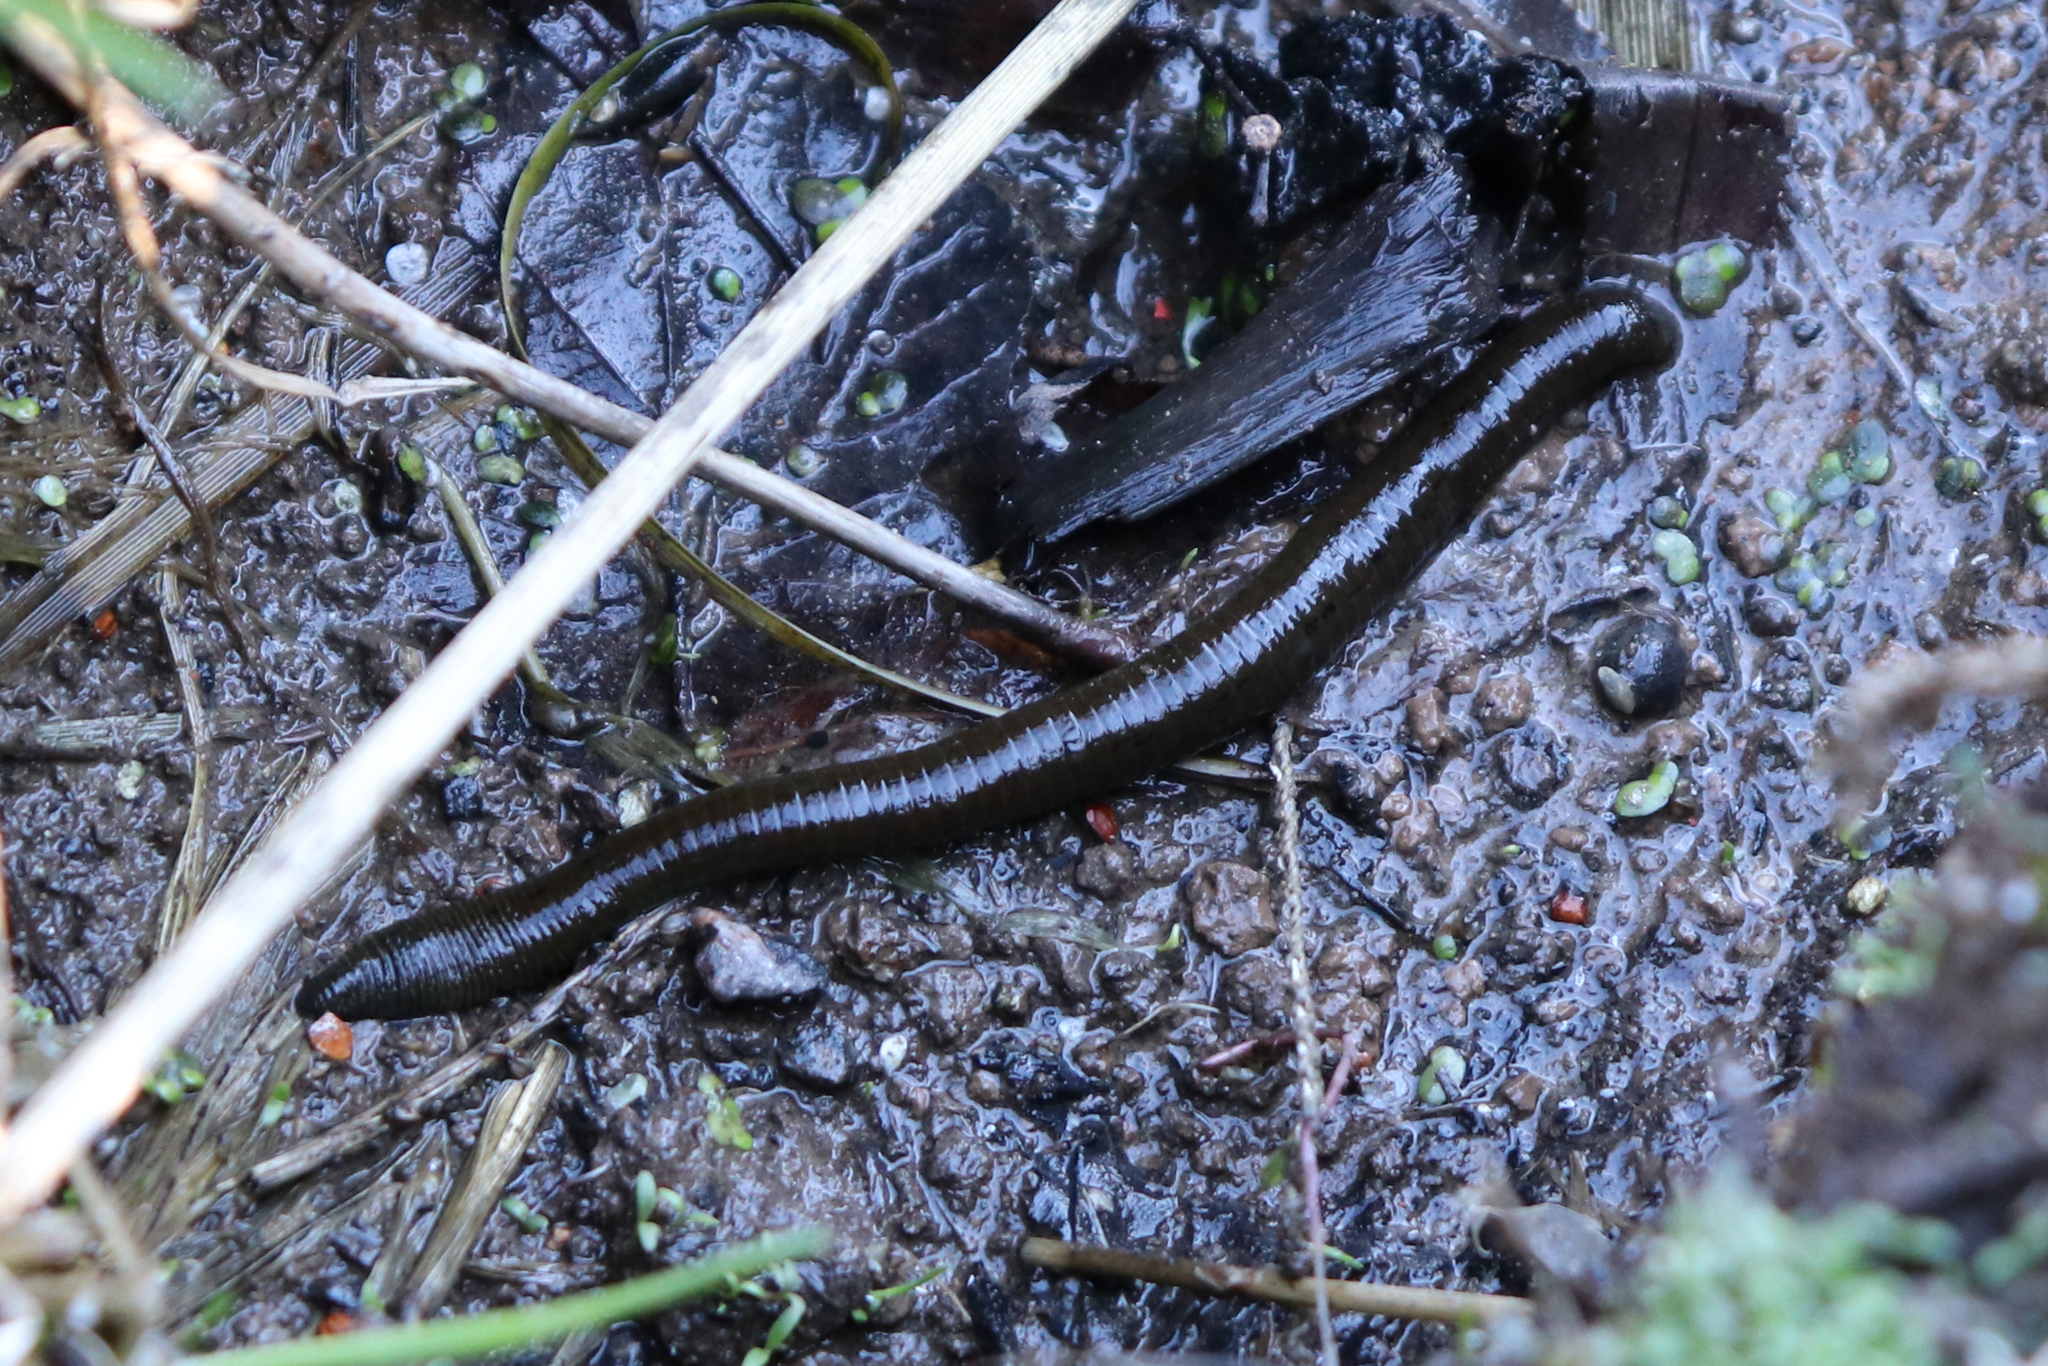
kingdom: Animalia
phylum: Annelida
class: Clitellata
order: Arhynchobdellida
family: Haemopidae
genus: Haemopis
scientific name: Haemopis sanguisuga
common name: Horse leech
